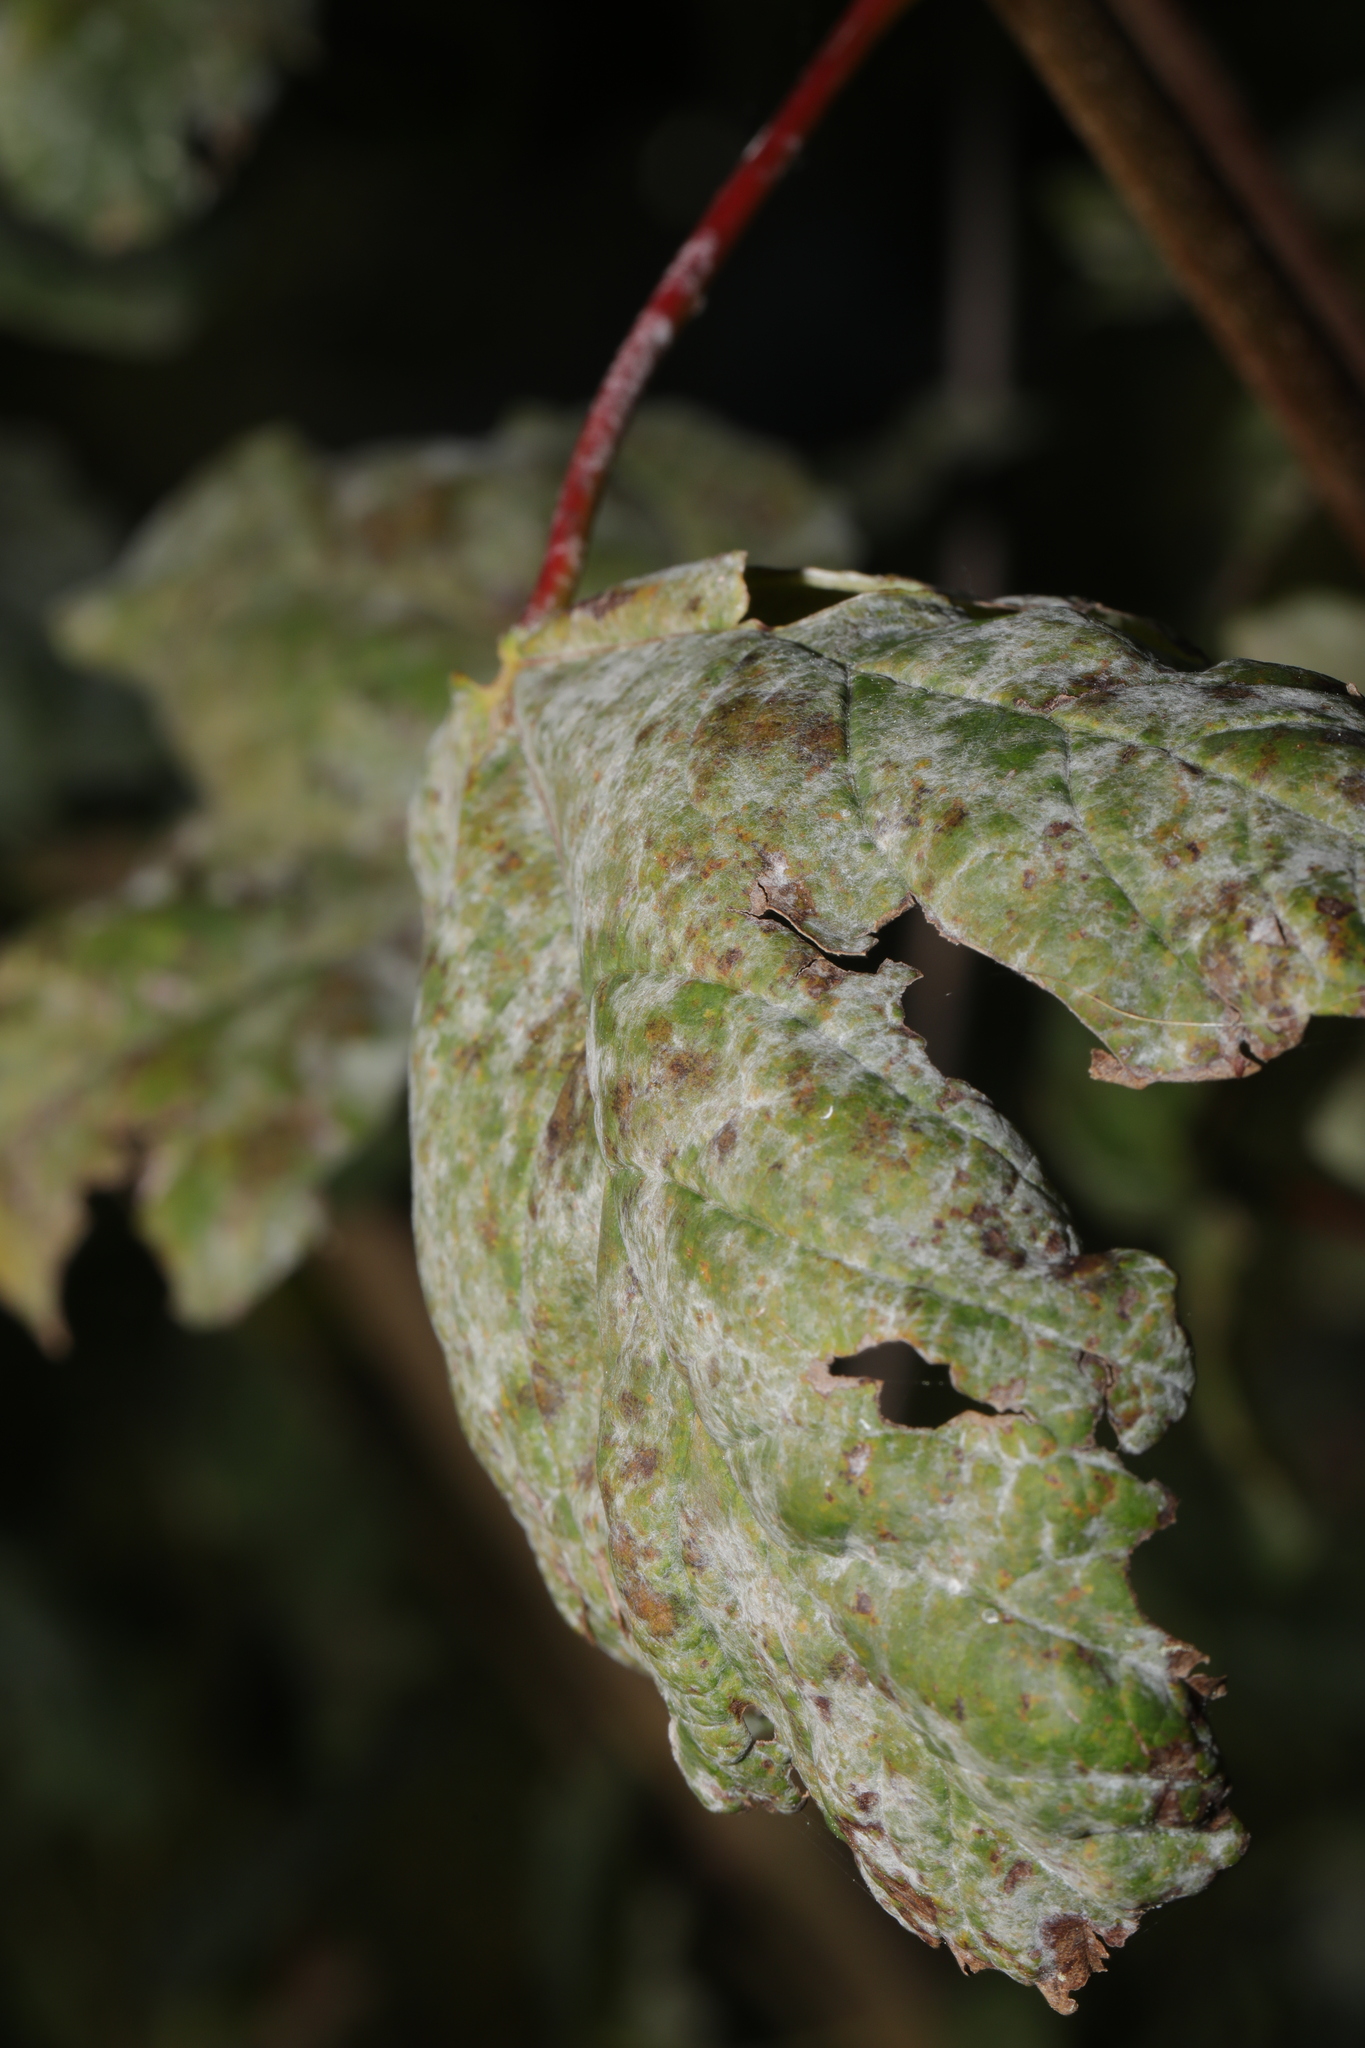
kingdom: Fungi
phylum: Ascomycota
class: Leotiomycetes
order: Helotiales
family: Erysiphaceae
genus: Sawadaea
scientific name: Sawadaea bicornis
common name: Maple mildew
